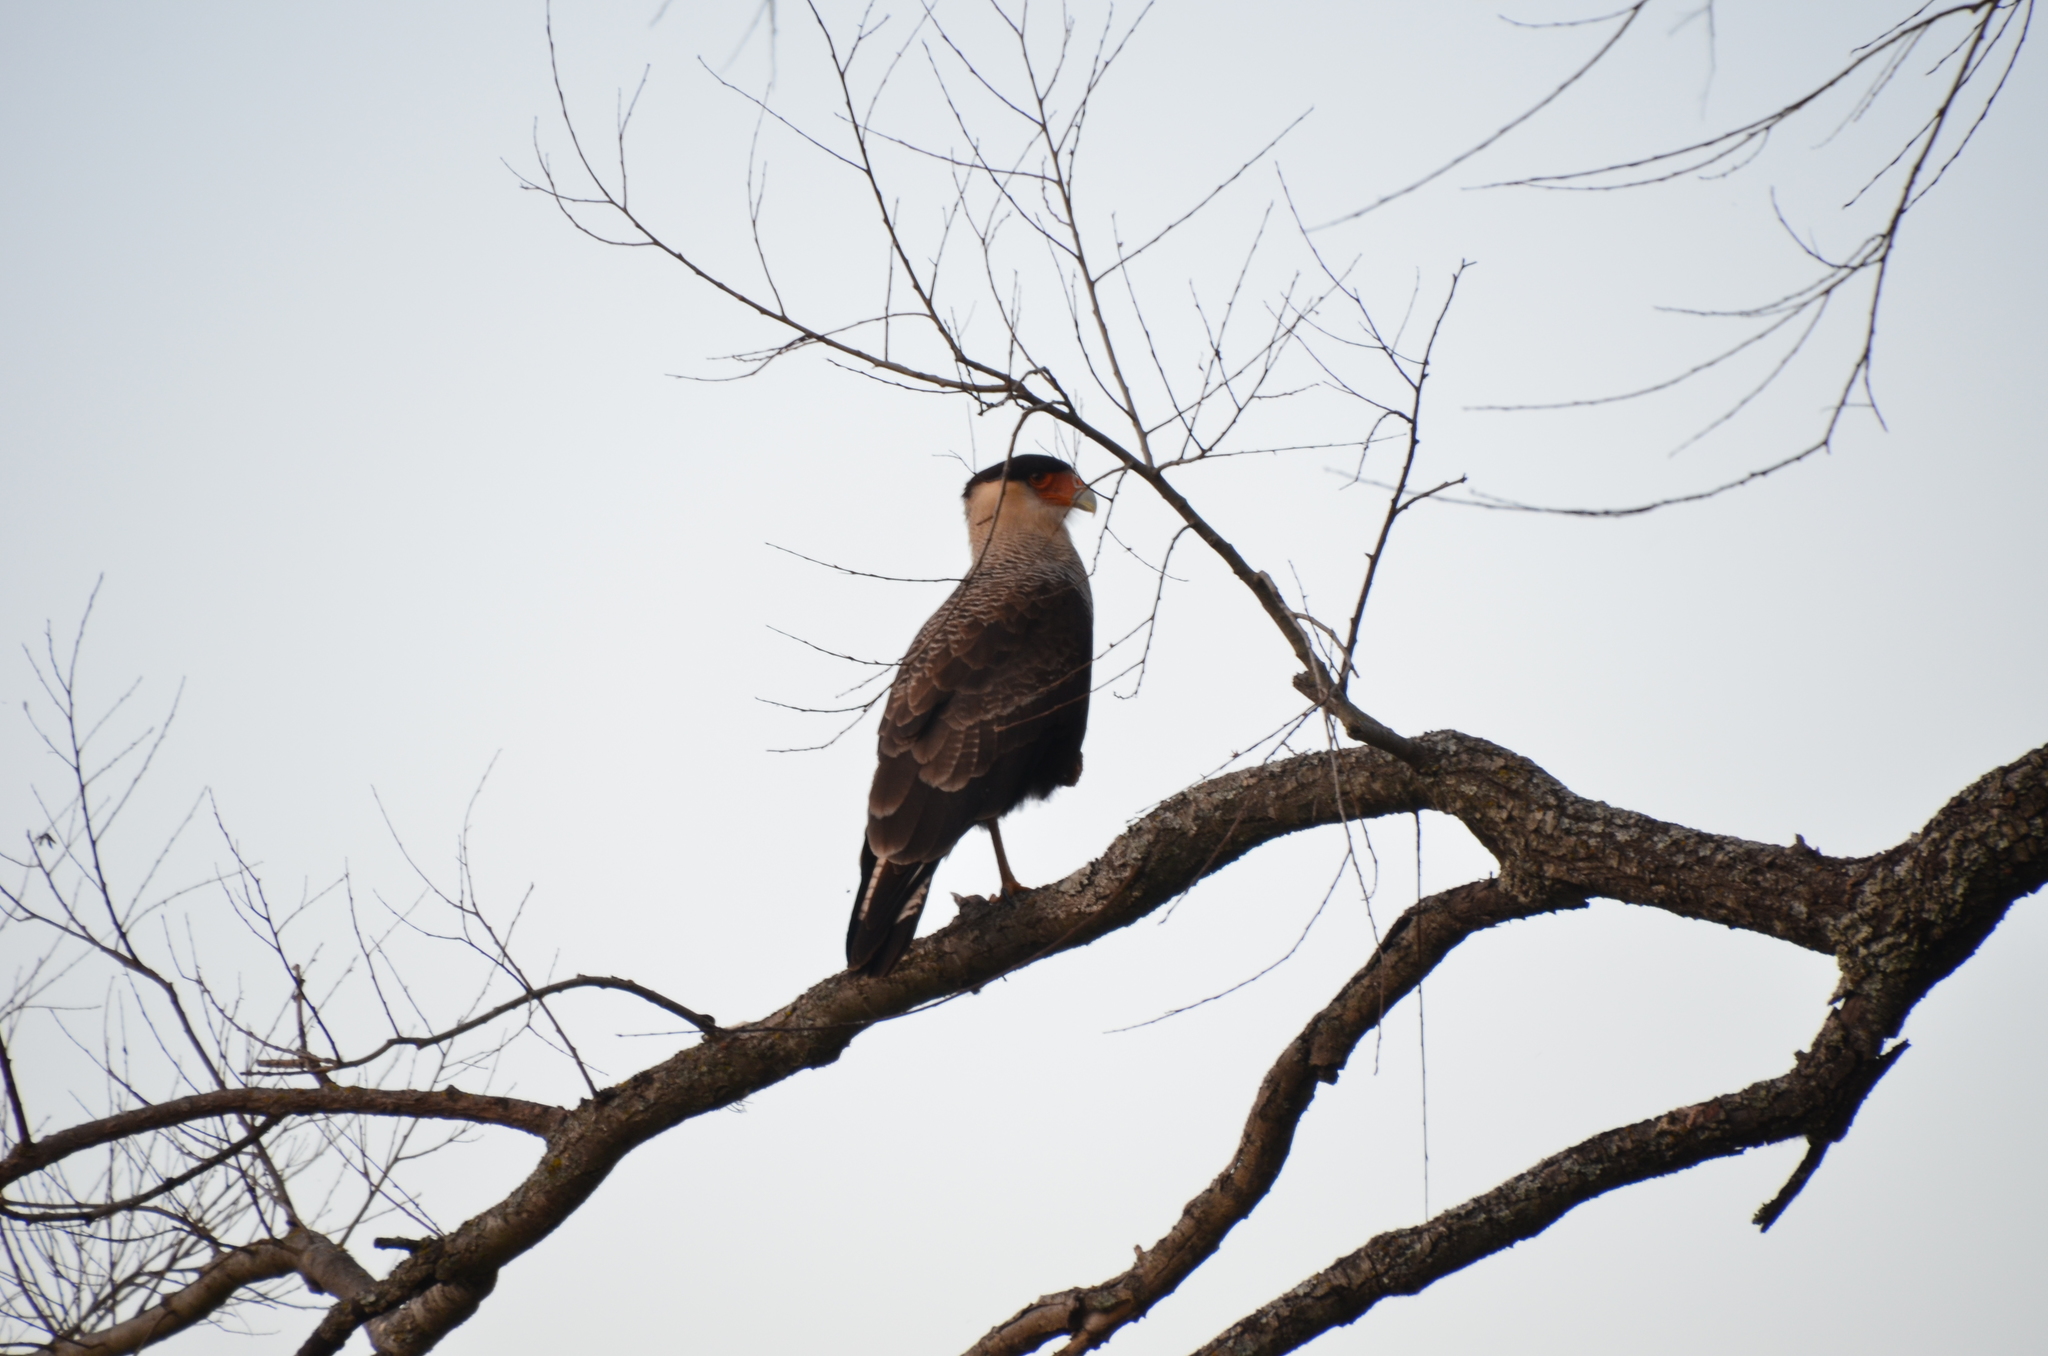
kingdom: Animalia
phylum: Chordata
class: Aves
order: Falconiformes
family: Falconidae
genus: Caracara
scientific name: Caracara plancus
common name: Southern caracara
